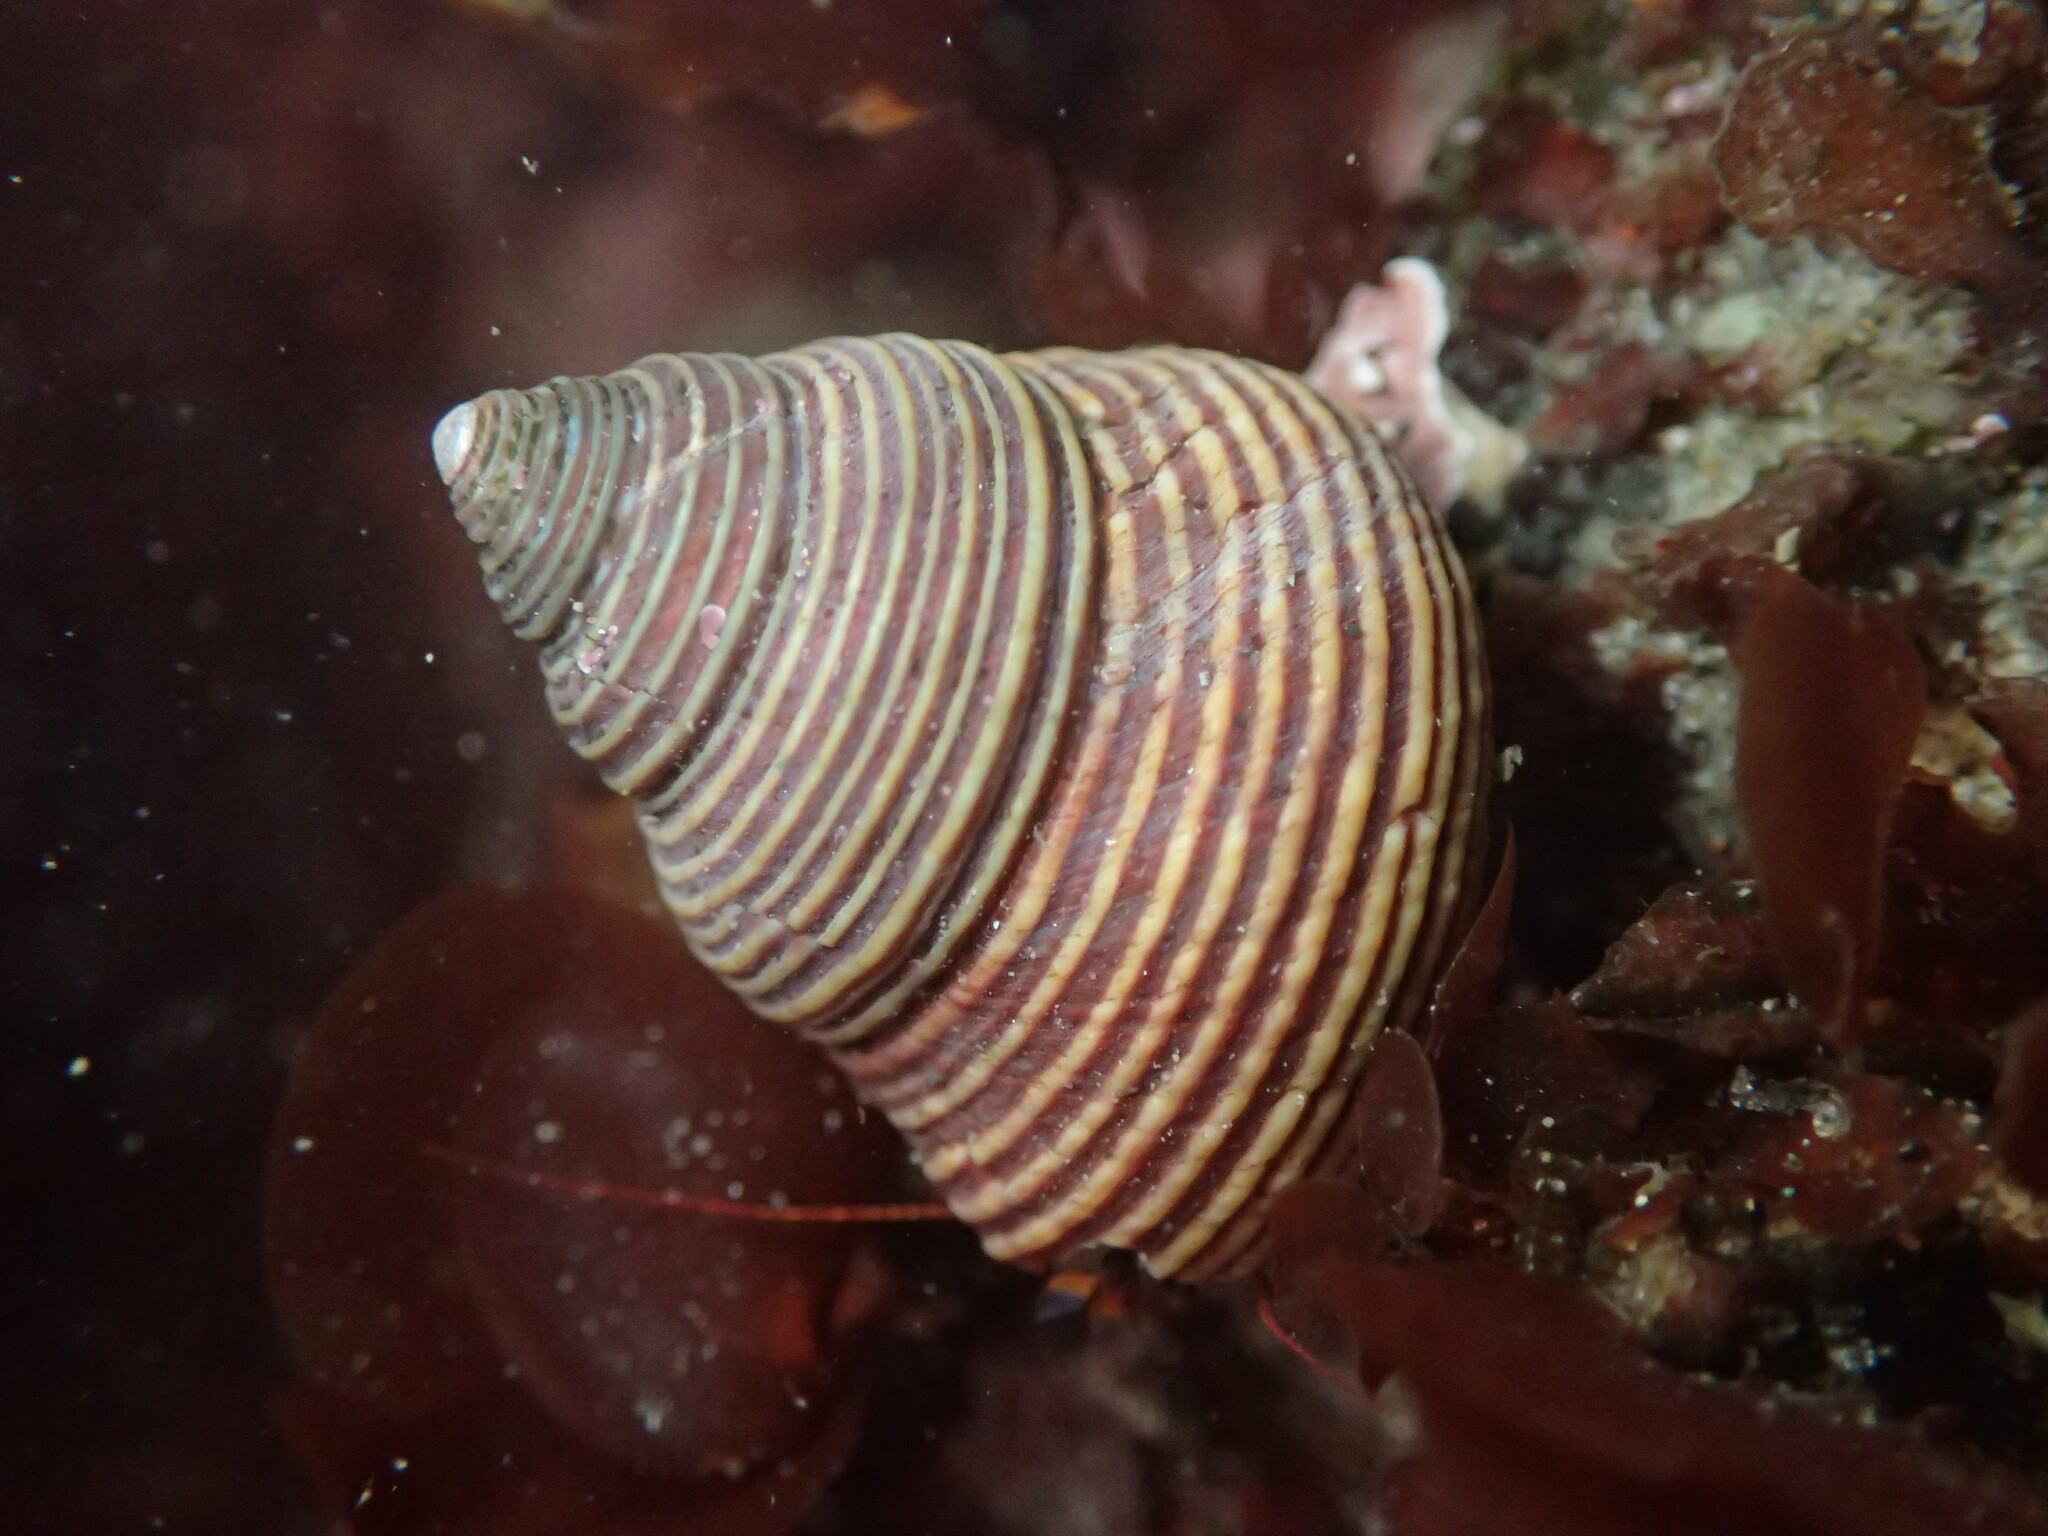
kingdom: Animalia
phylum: Mollusca
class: Gastropoda
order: Trochida
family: Calliostomatidae
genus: Calliostoma
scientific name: Calliostoma ligatum
